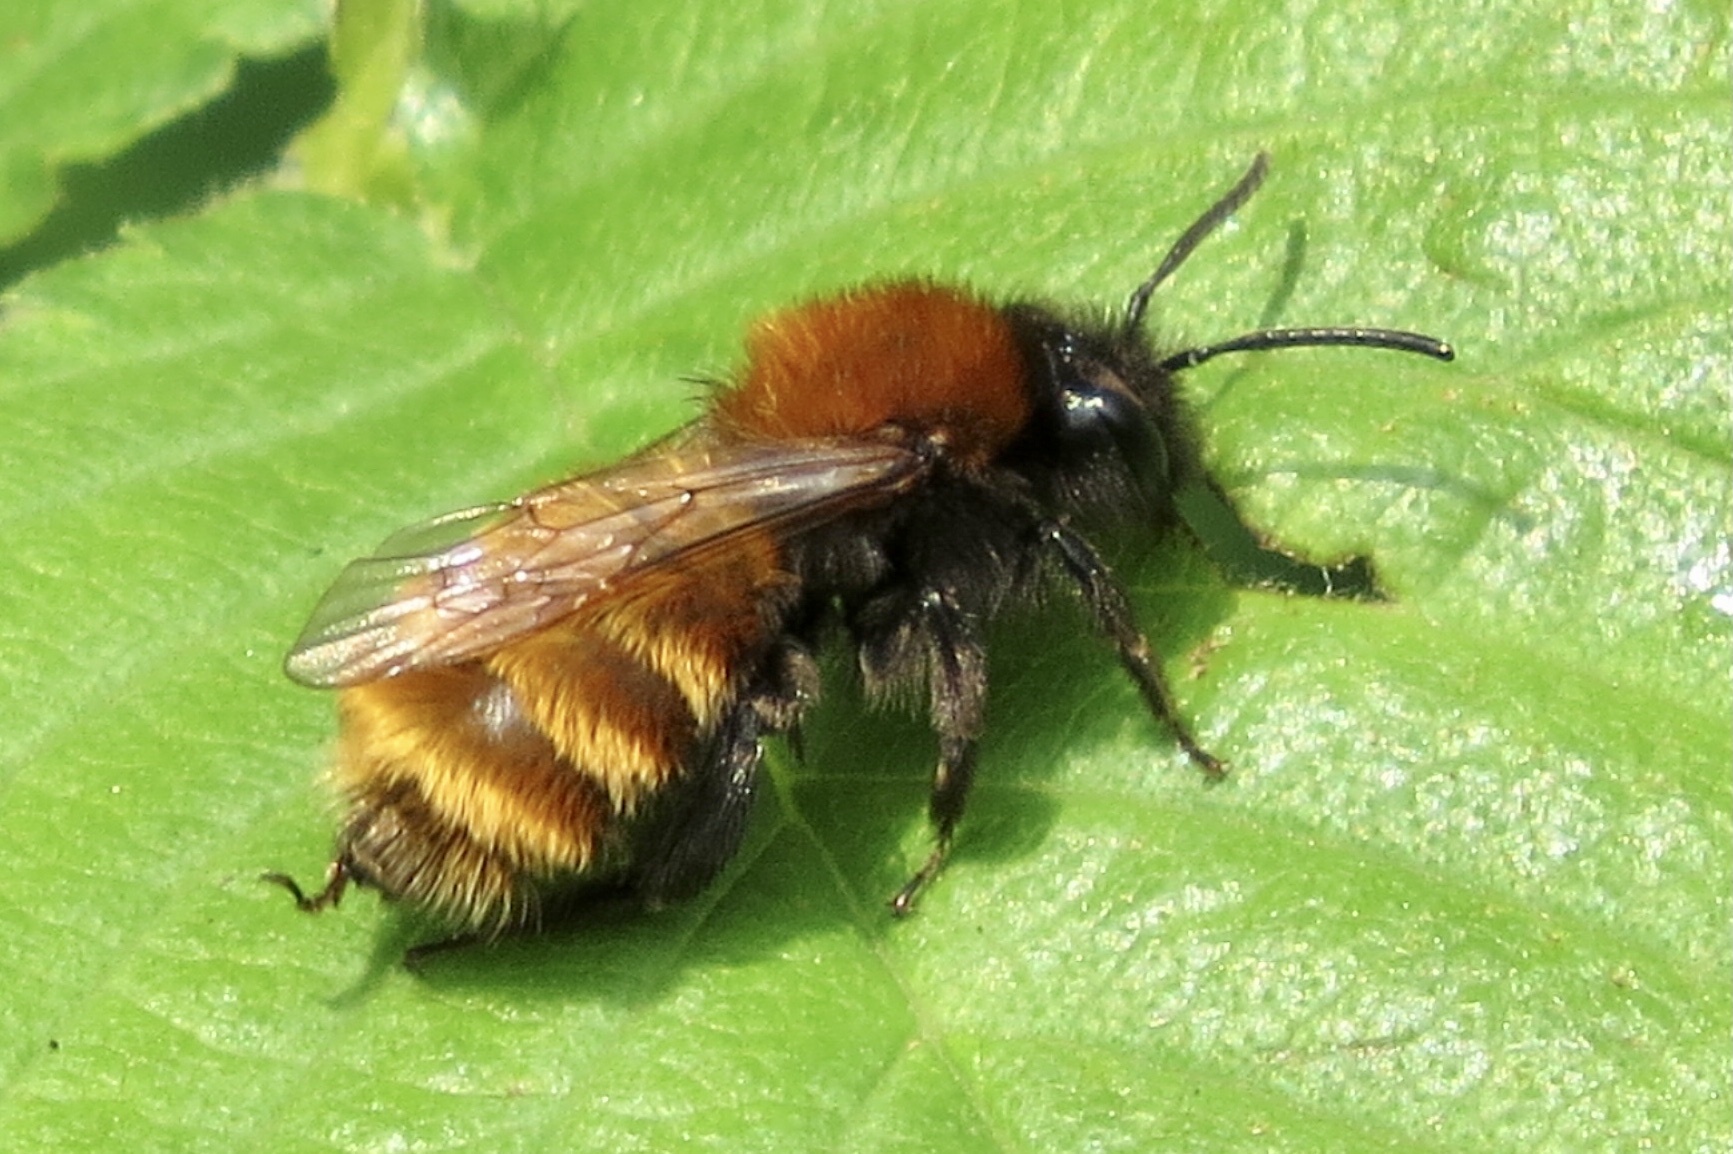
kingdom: Animalia
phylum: Arthropoda
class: Insecta
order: Hymenoptera
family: Andrenidae
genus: Andrena
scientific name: Andrena fulva
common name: Tawny mining bee
